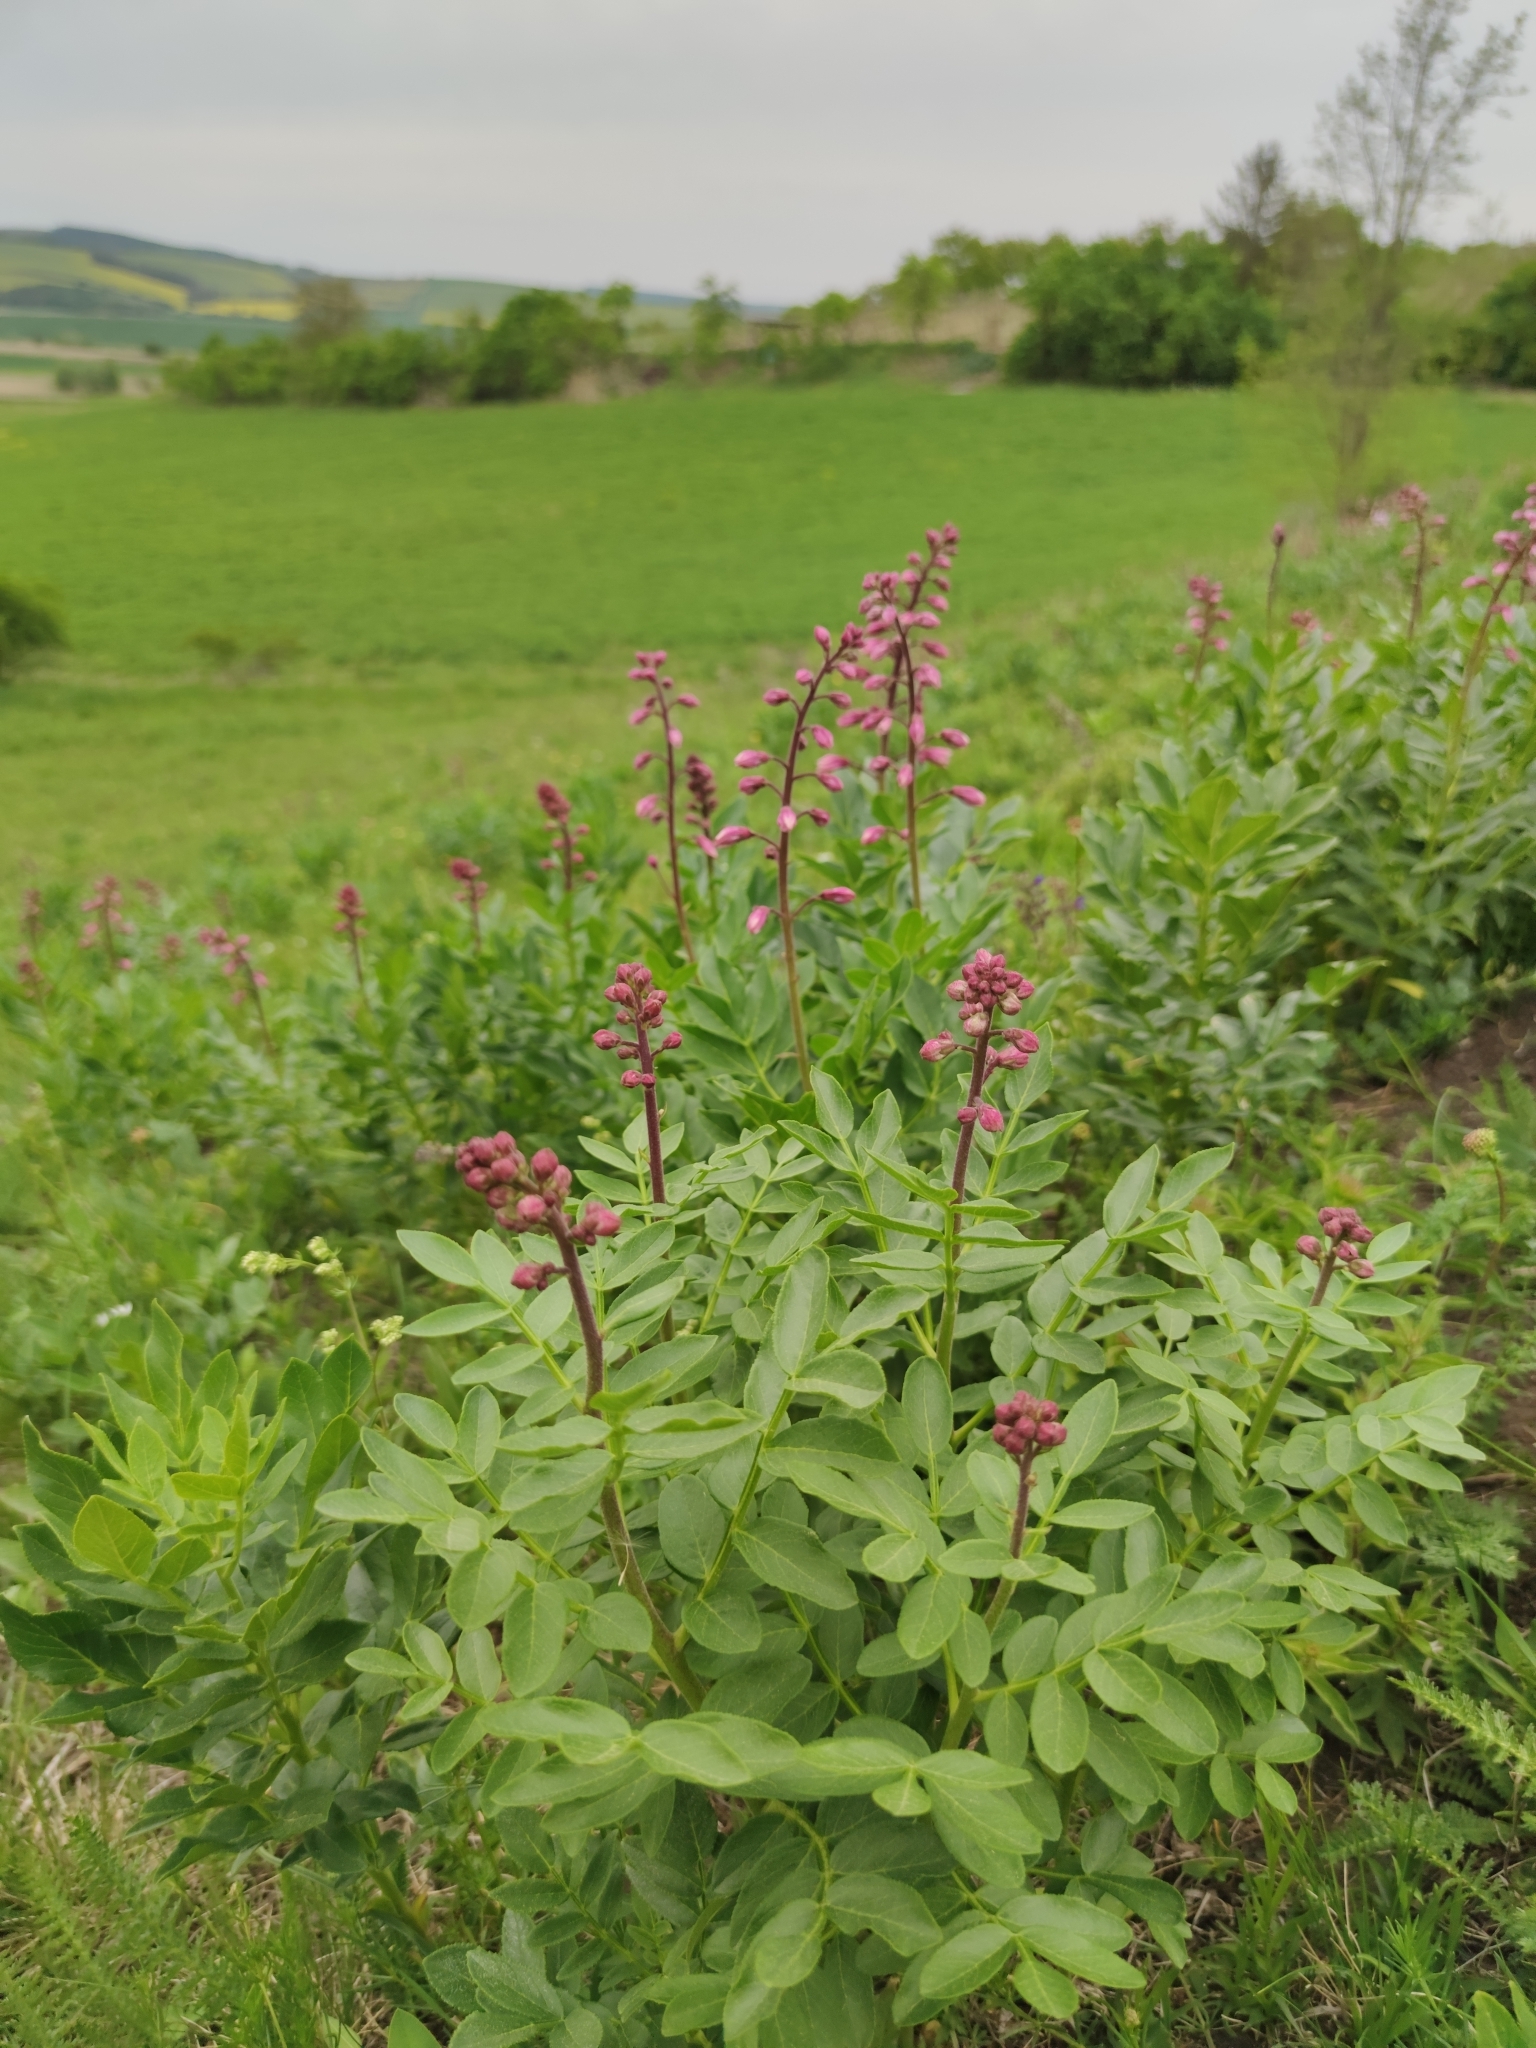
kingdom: Plantae
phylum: Tracheophyta
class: Magnoliopsida
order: Sapindales
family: Rutaceae
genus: Dictamnus
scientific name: Dictamnus albus
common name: Gasplant
